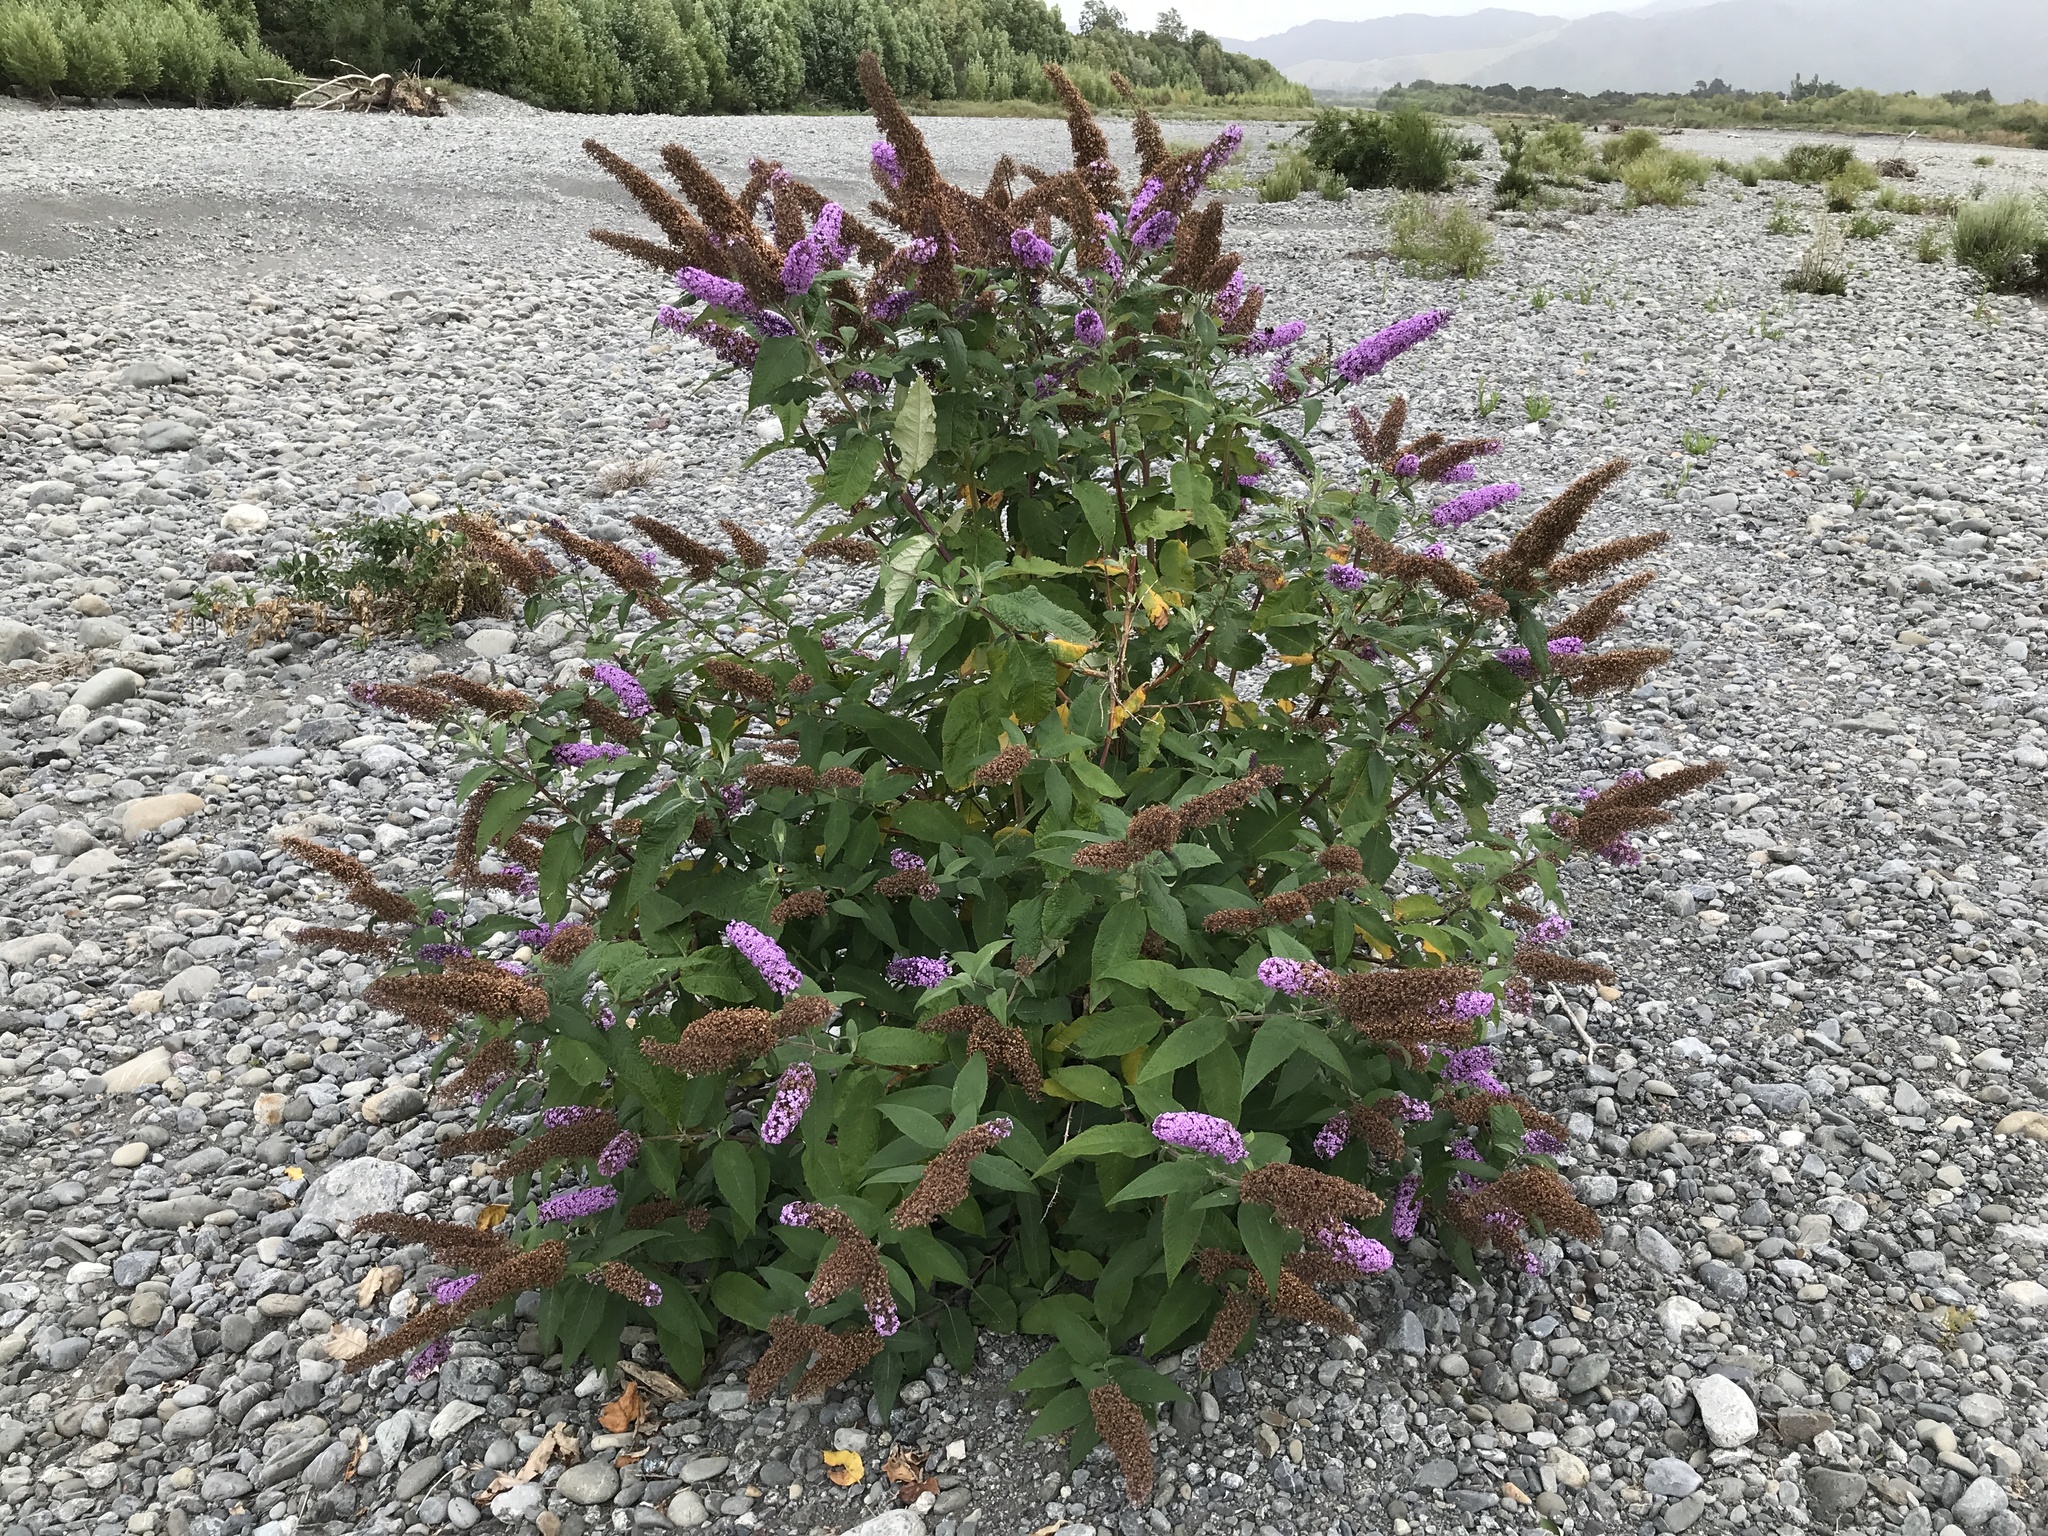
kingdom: Plantae
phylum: Tracheophyta
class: Magnoliopsida
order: Lamiales
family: Scrophulariaceae
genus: Buddleja
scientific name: Buddleja davidii
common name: Butterfly-bush
